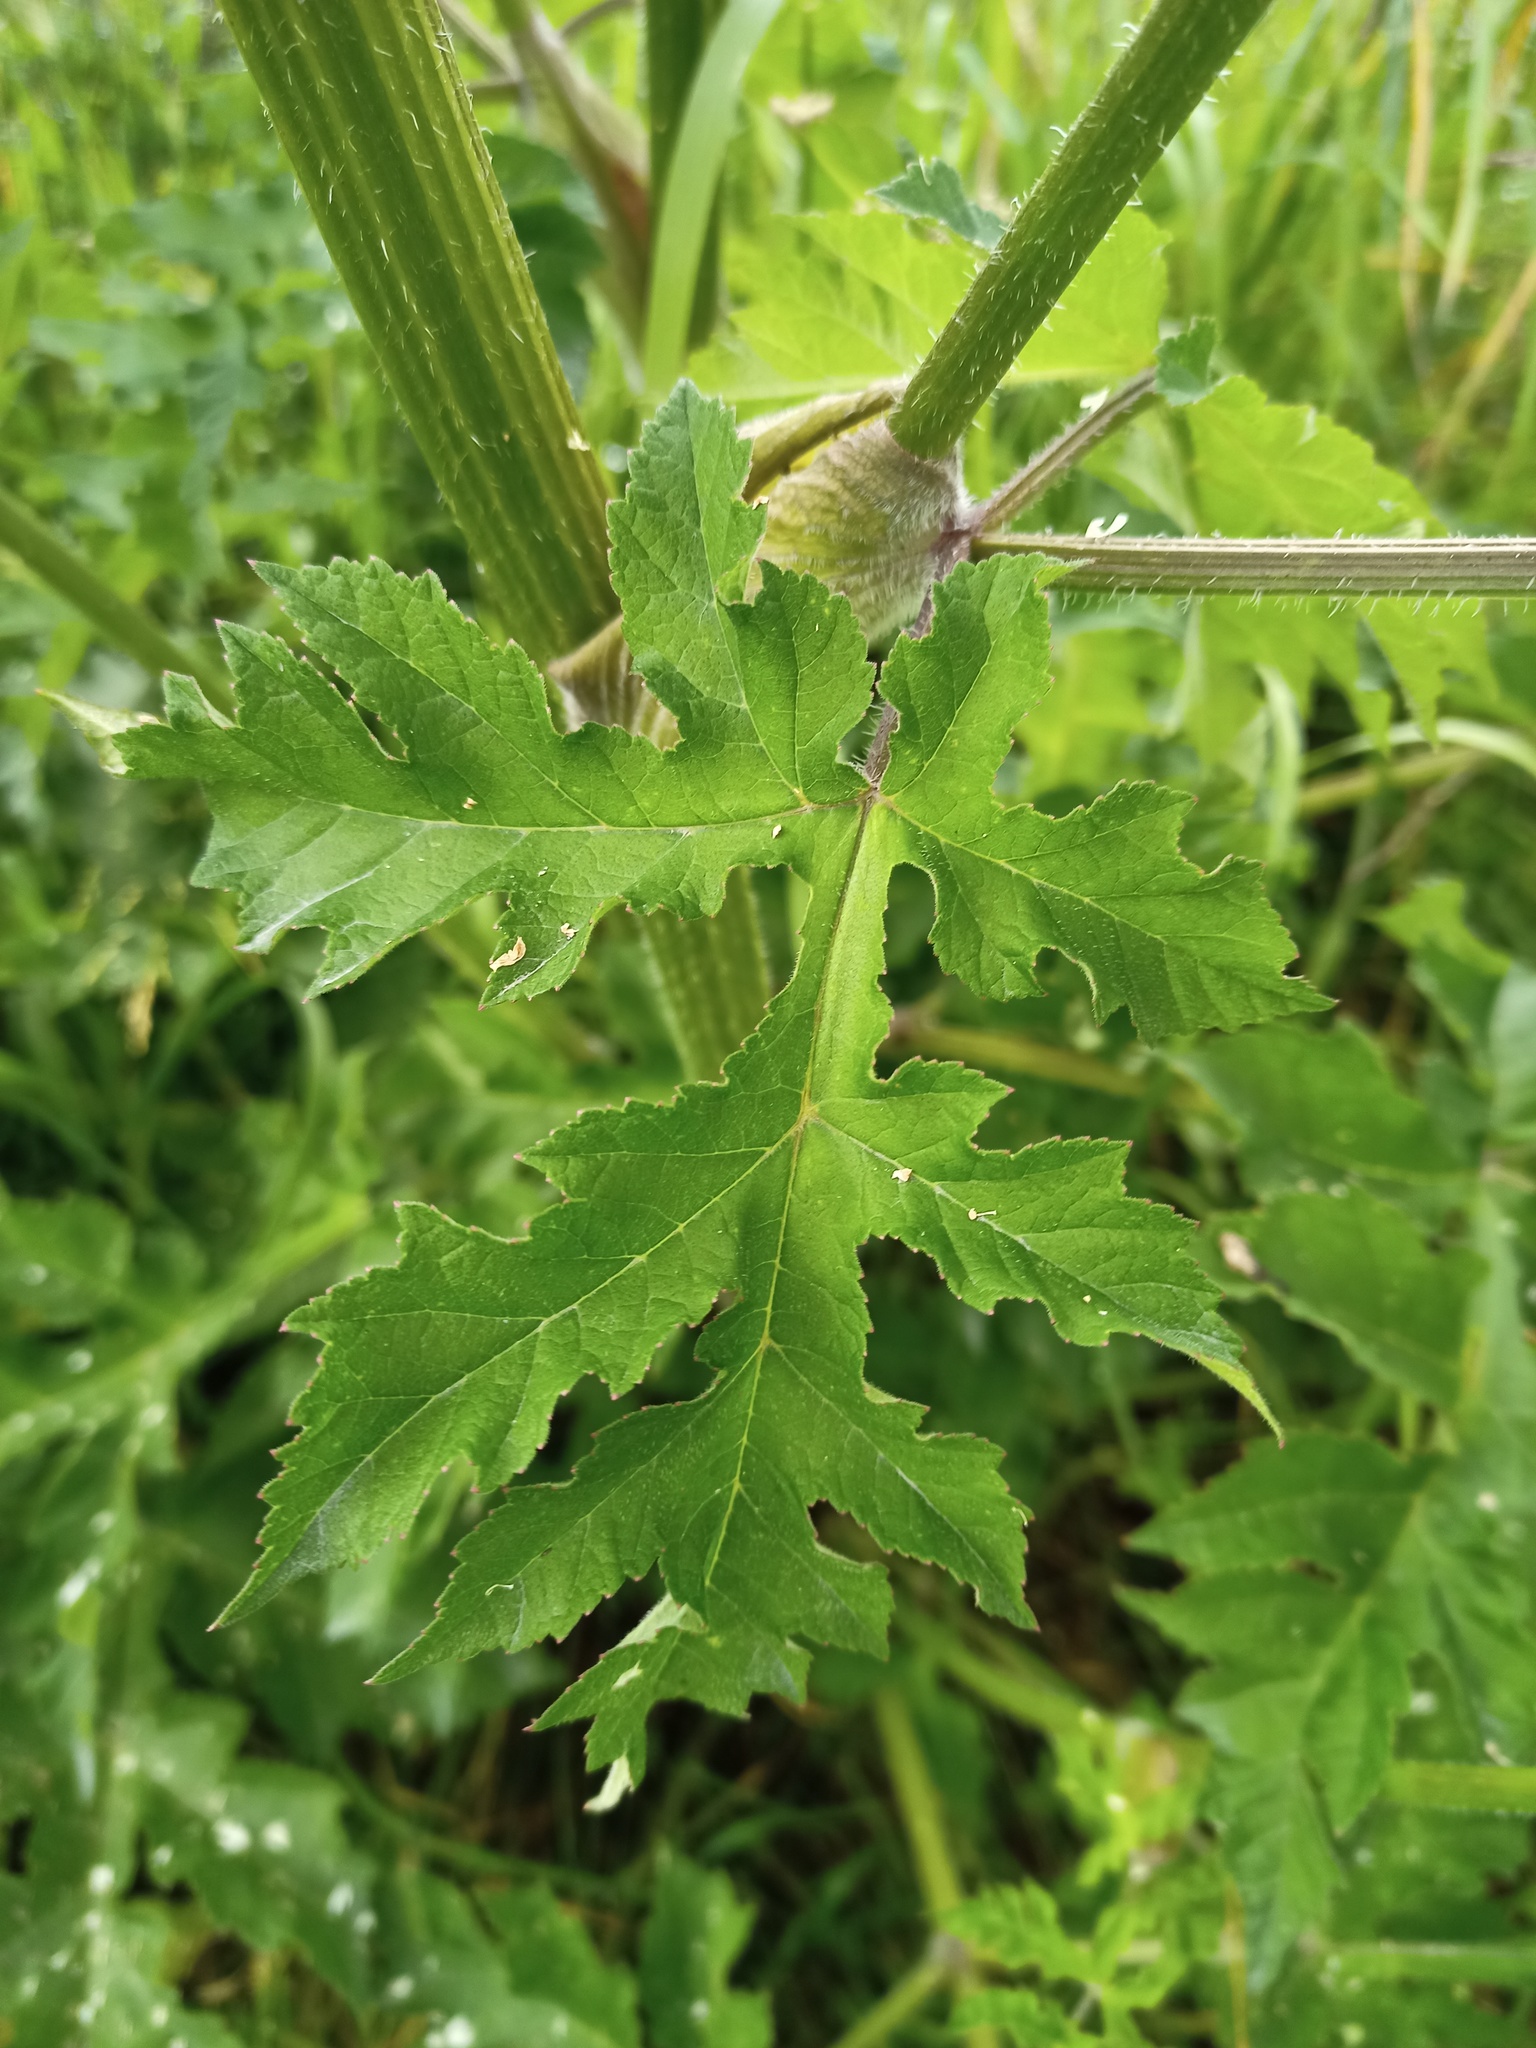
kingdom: Plantae
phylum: Tracheophyta
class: Magnoliopsida
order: Apiales
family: Apiaceae
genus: Heracleum
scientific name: Heracleum sphondylium
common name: Hogweed
